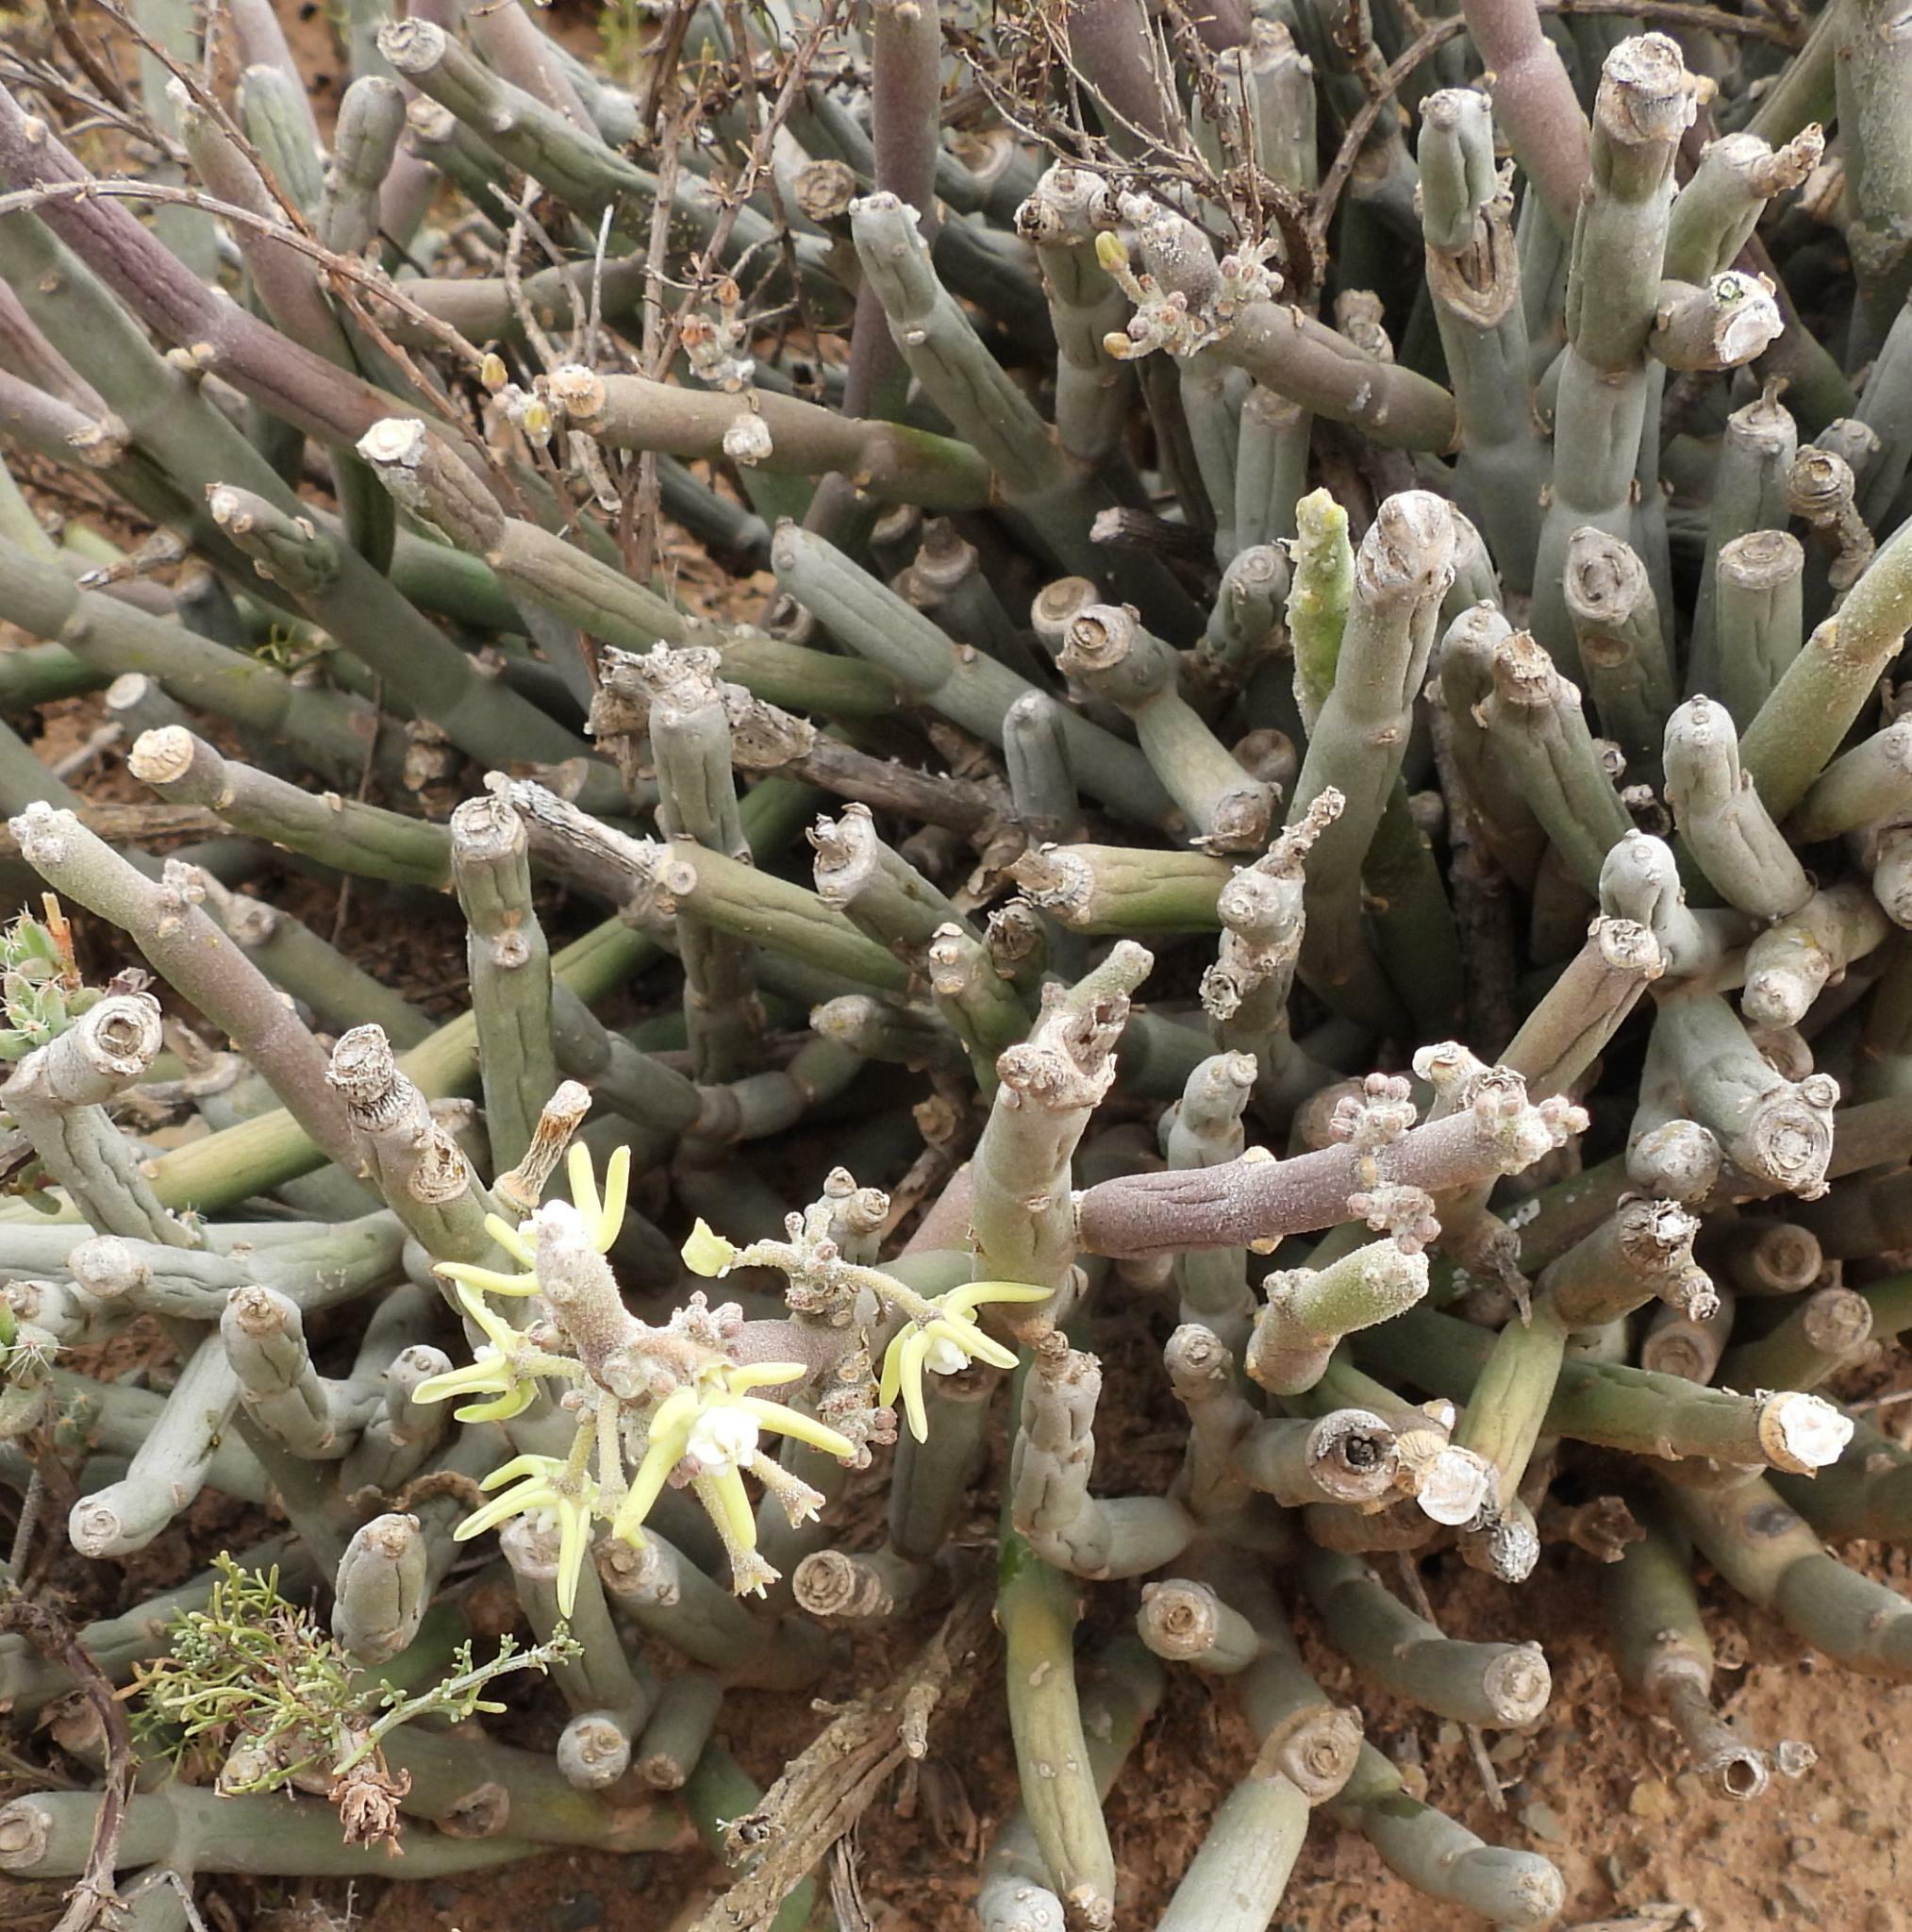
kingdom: Plantae
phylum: Tracheophyta
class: Magnoliopsida
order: Gentianales
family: Apocynaceae
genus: Cynanchum
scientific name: Cynanchum viminale
